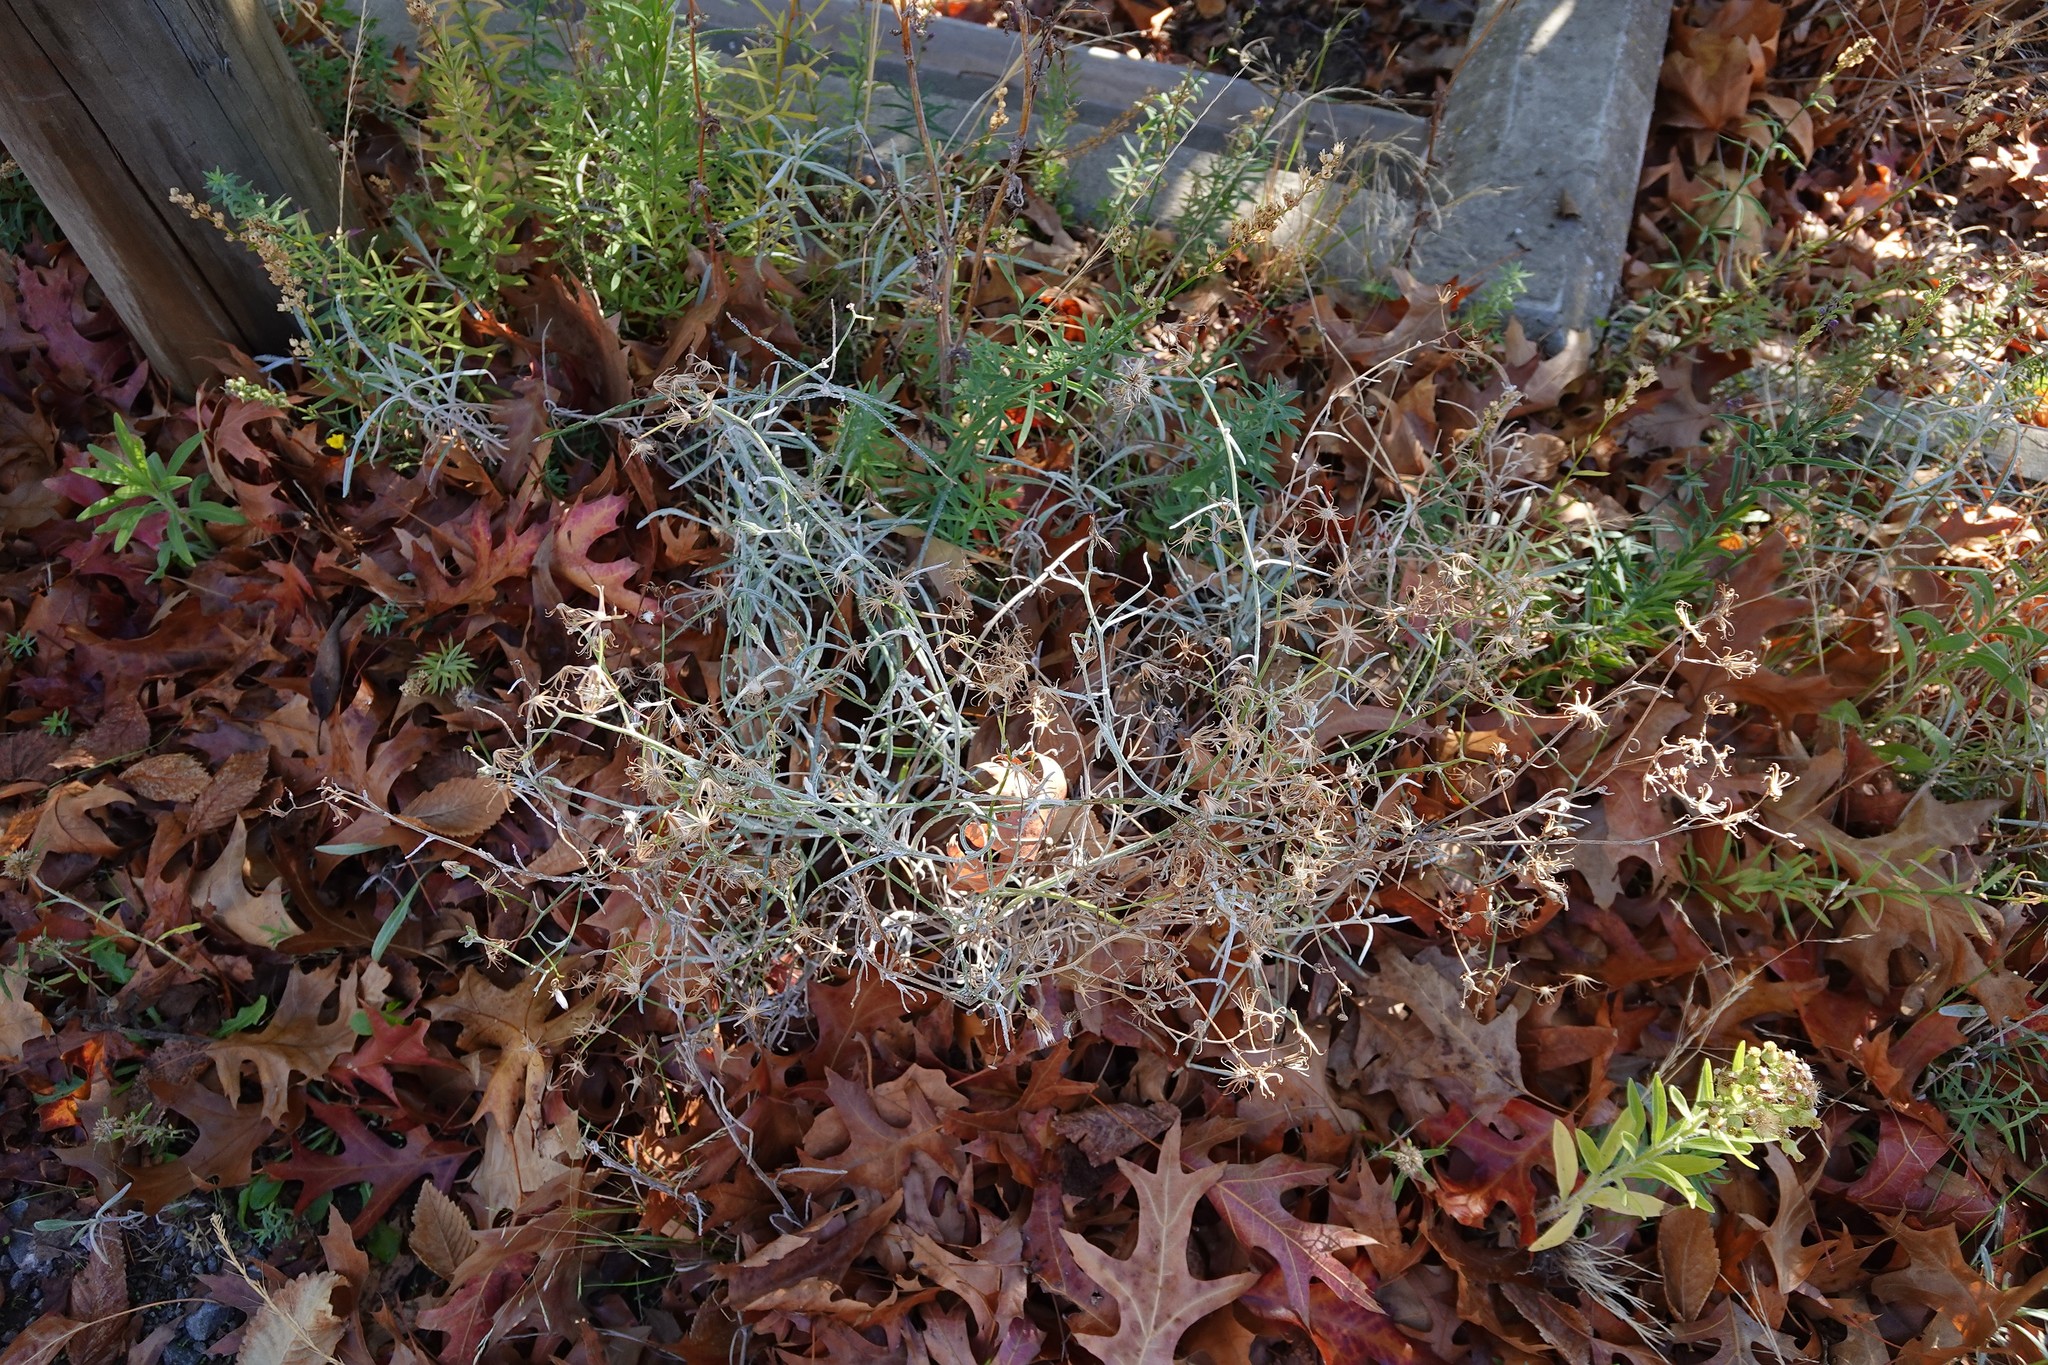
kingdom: Plantae
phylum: Tracheophyta
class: Magnoliopsida
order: Asterales
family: Asteraceae
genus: Senecio
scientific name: Senecio quadridentatus
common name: Cotton fireweed
